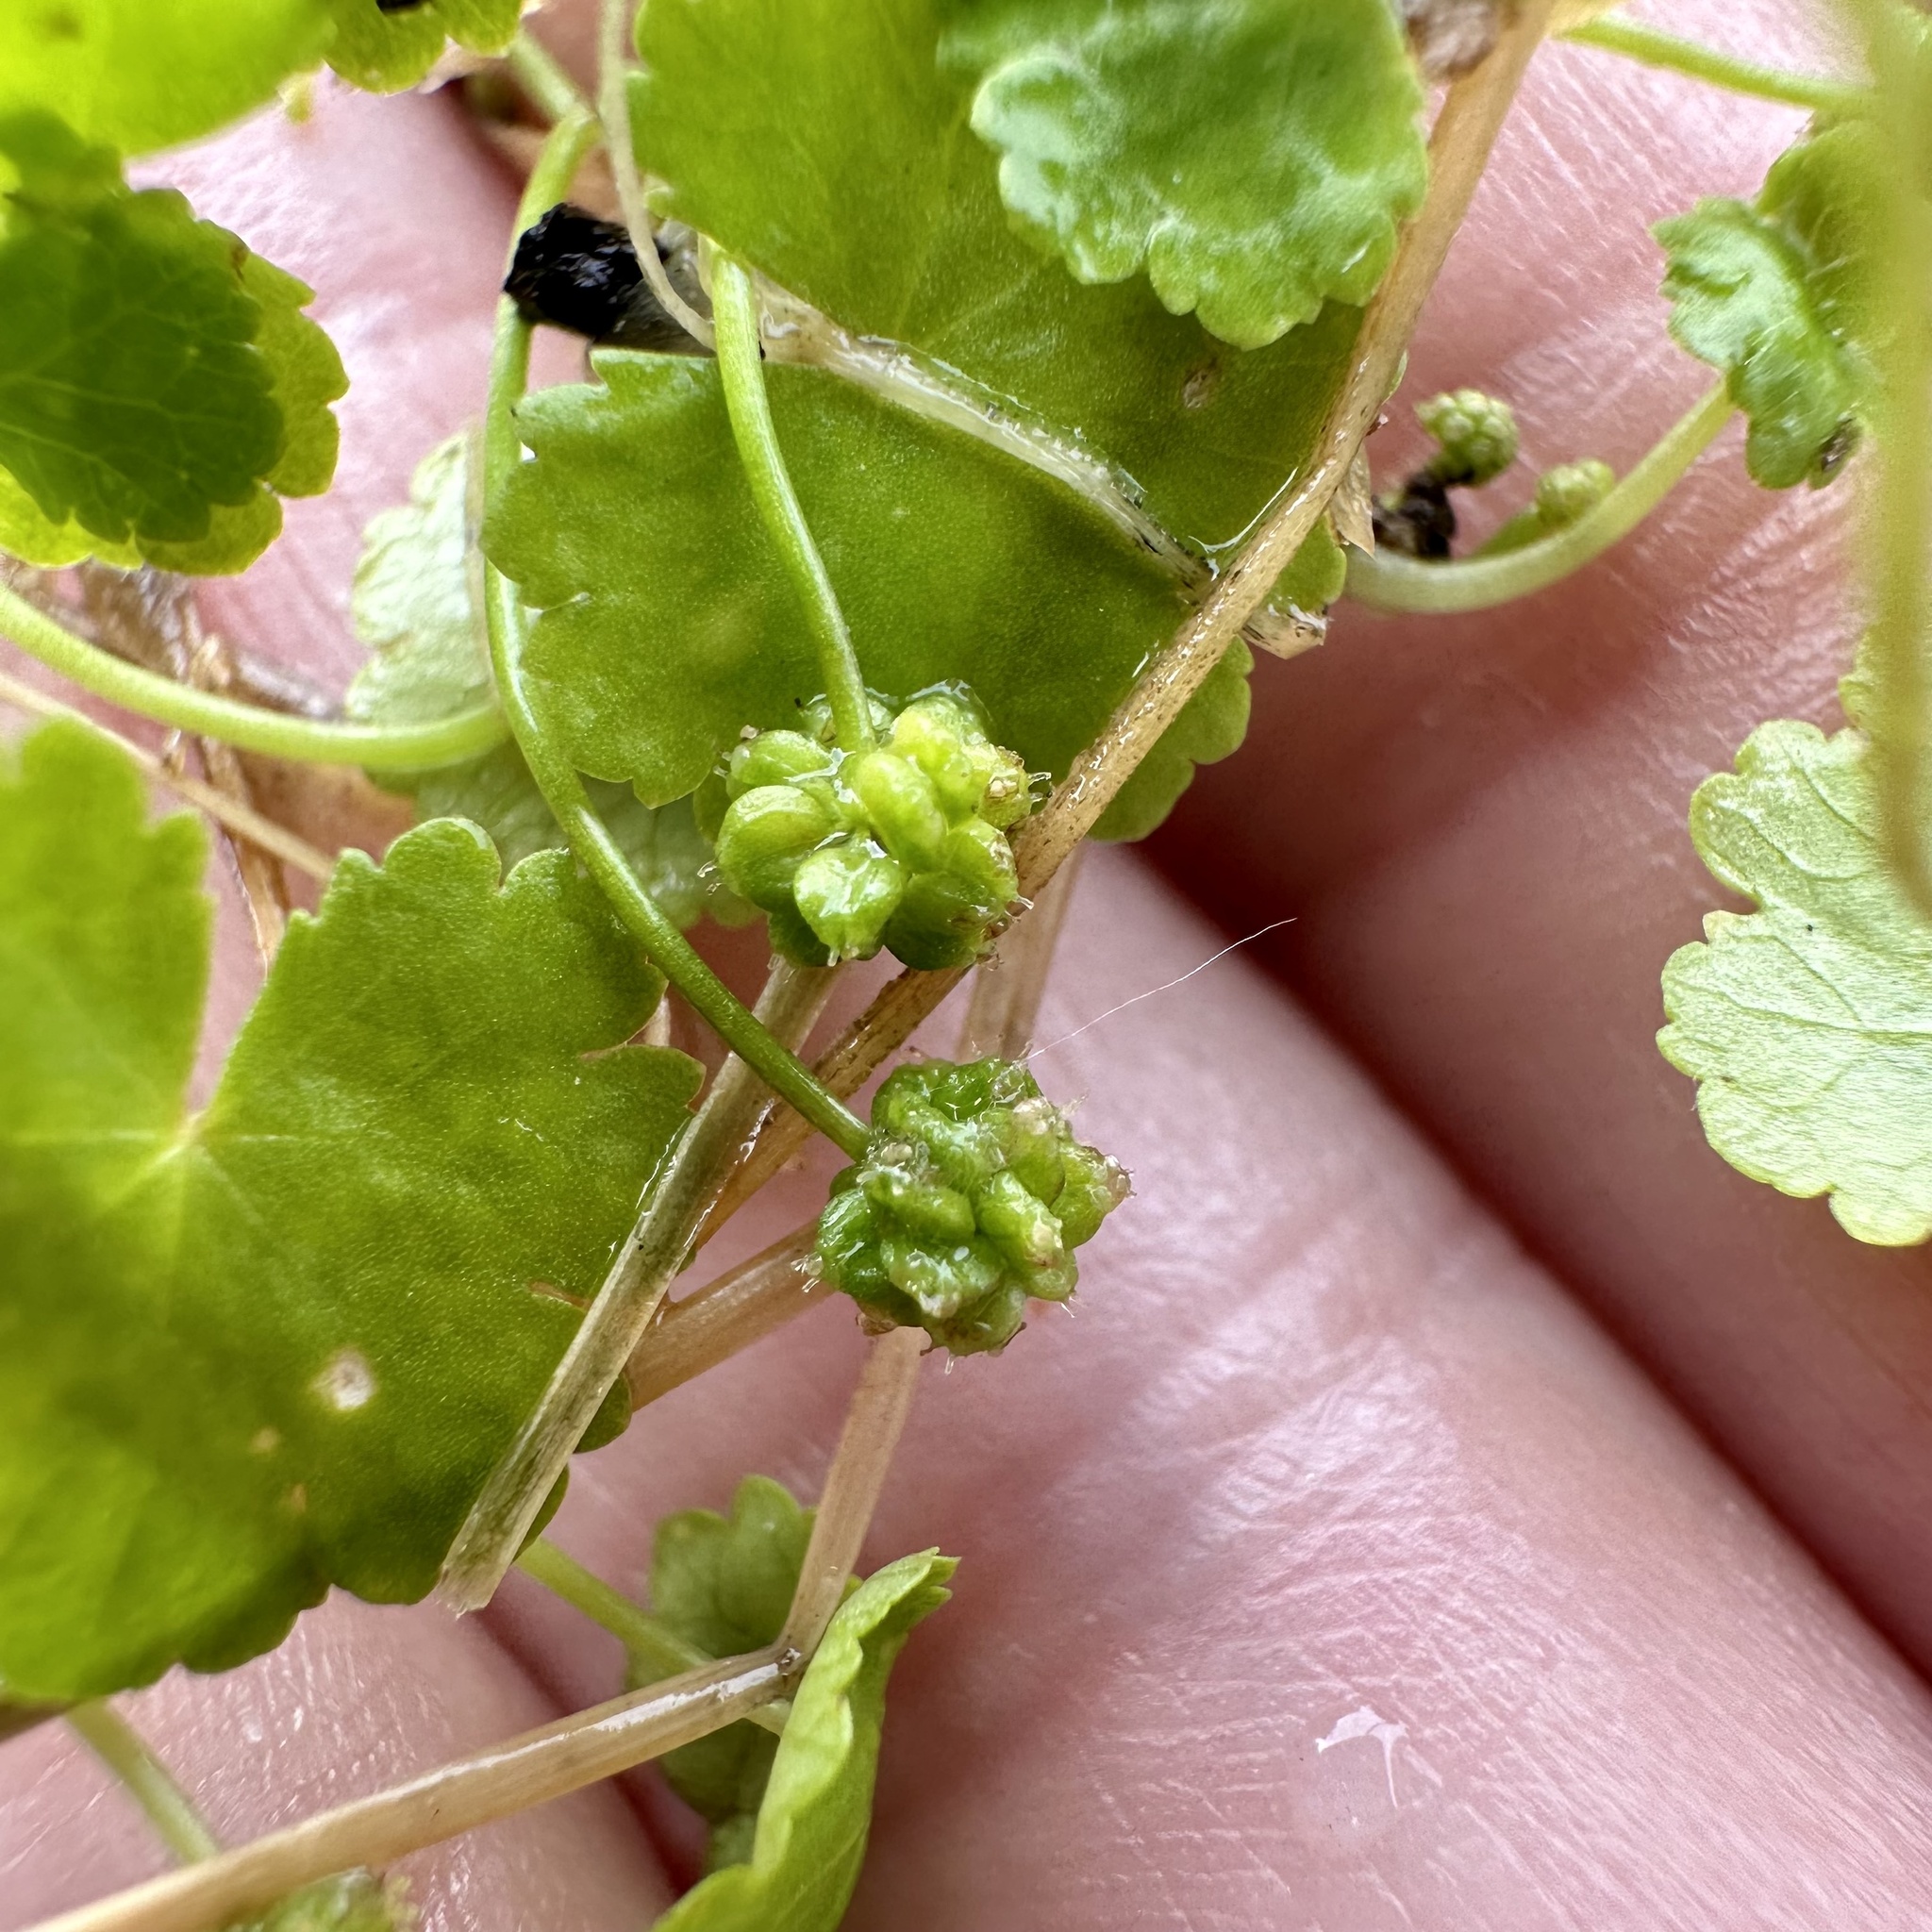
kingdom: Plantae
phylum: Tracheophyta
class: Magnoliopsida
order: Apiales
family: Araliaceae
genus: Hydrocotyle
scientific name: Hydrocotyle sibthorpioides
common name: Lawn marshpennywort
